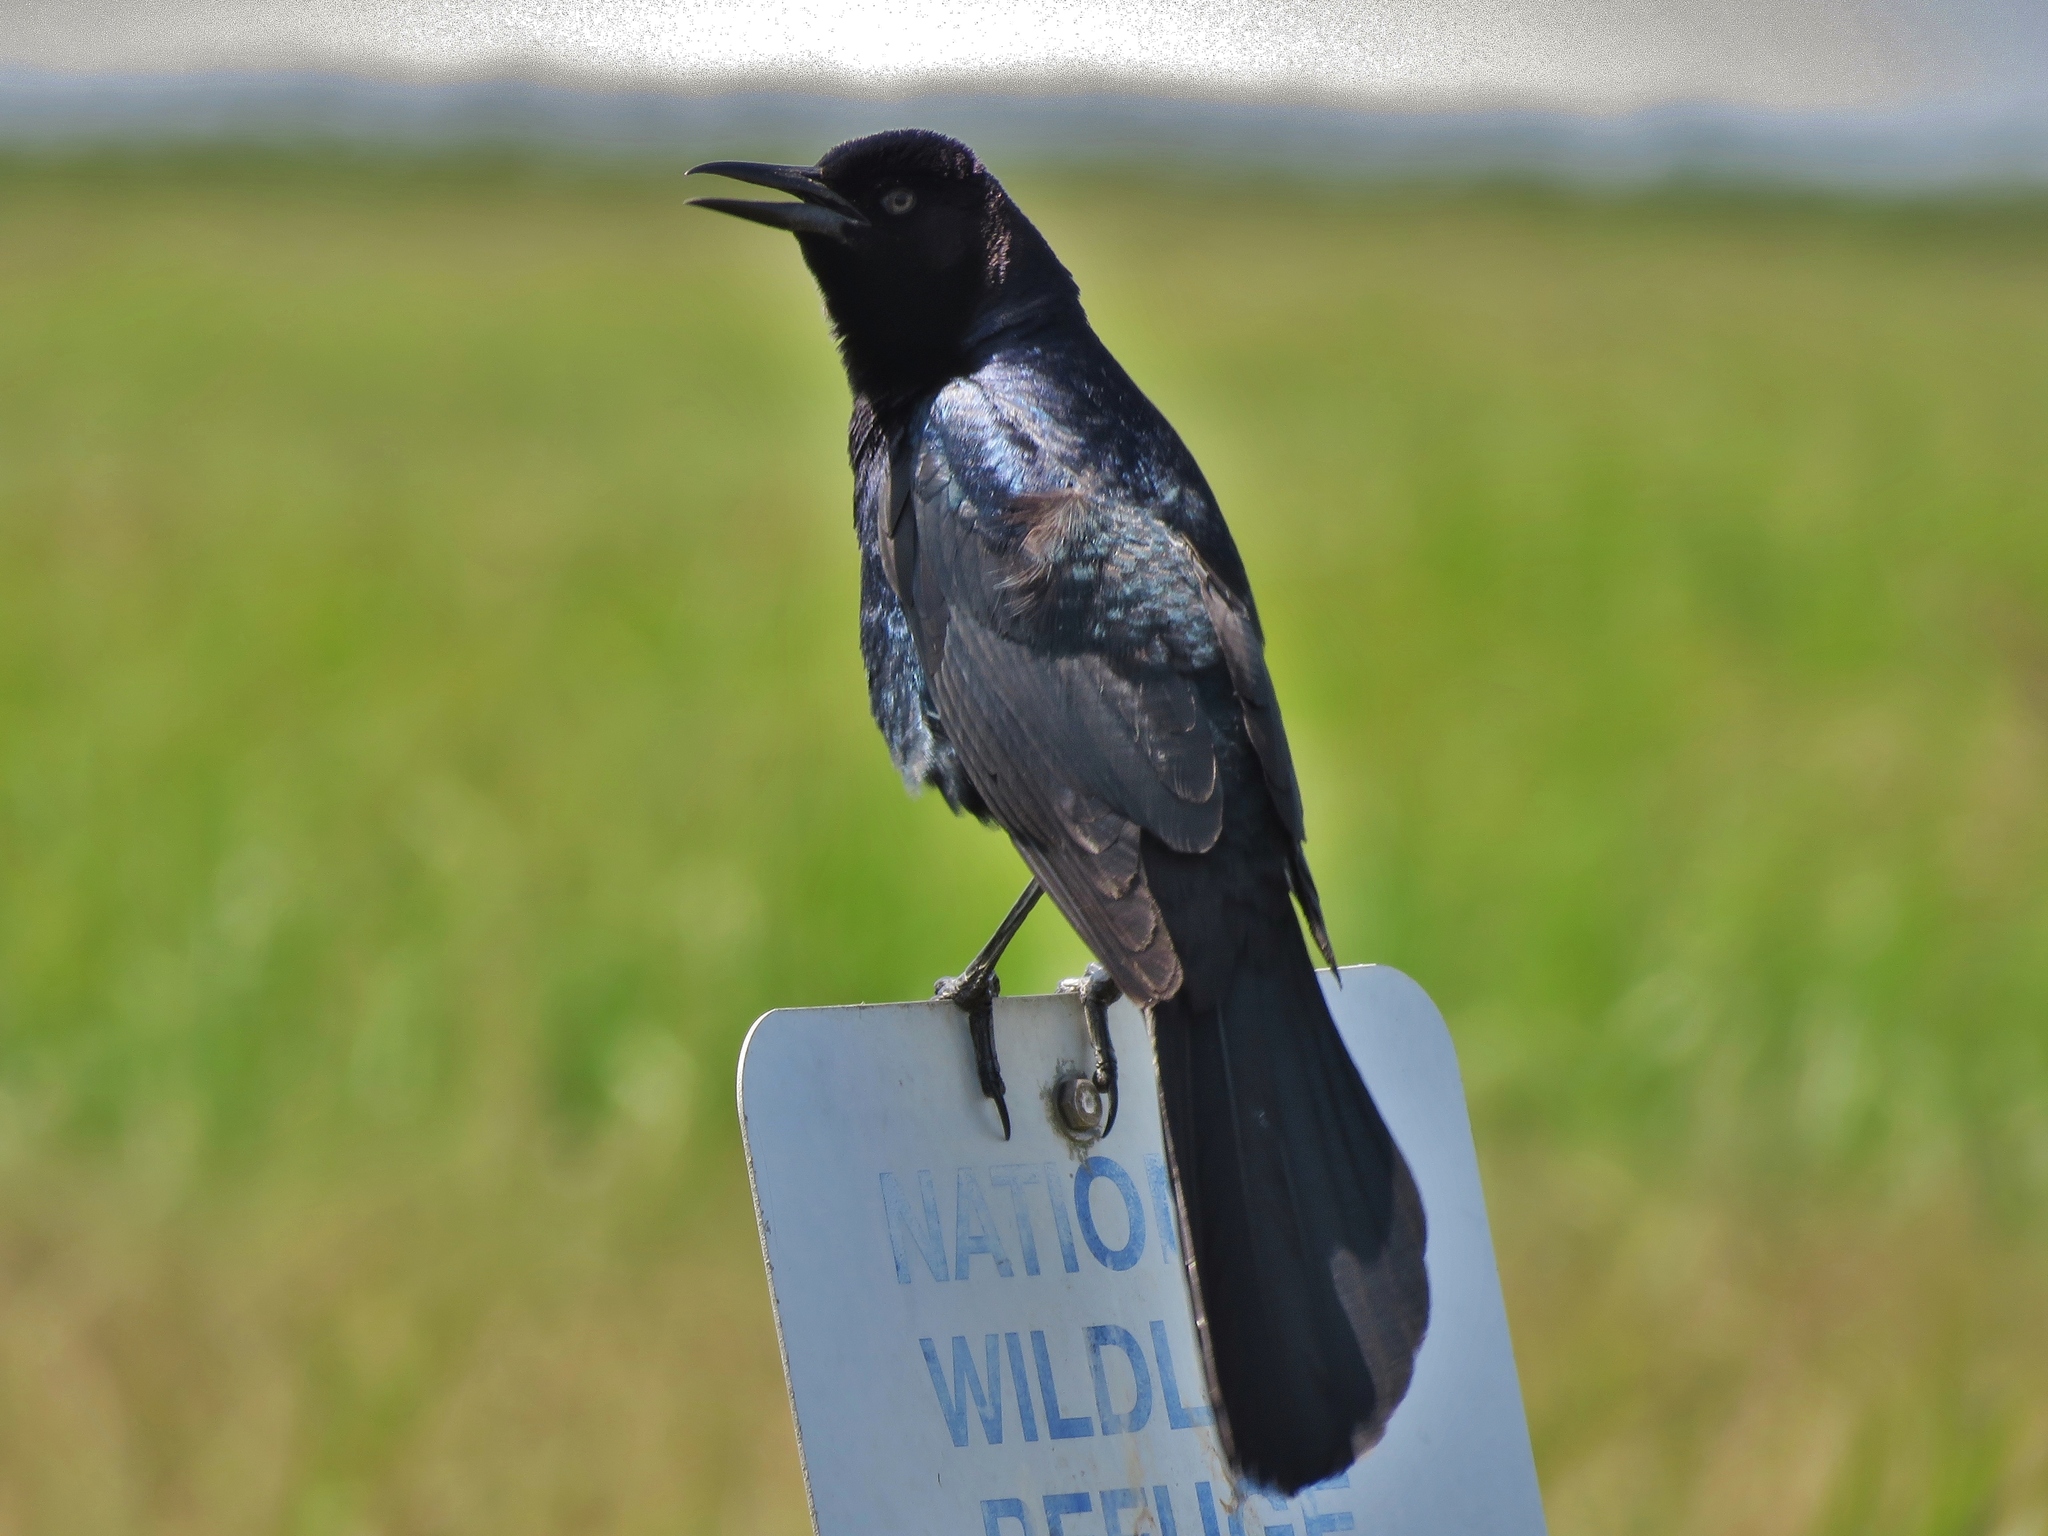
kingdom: Animalia
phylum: Chordata
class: Aves
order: Passeriformes
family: Icteridae
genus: Quiscalus
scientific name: Quiscalus major
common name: Boat-tailed grackle
